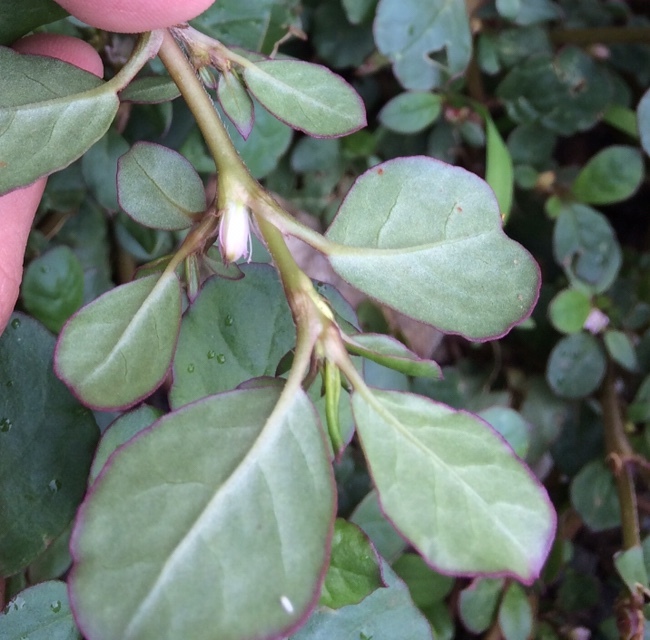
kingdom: Plantae
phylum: Tracheophyta
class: Magnoliopsida
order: Caryophyllales
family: Aizoaceae
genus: Trianthema
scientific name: Trianthema portulacastrum
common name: Desert horsepurslane
